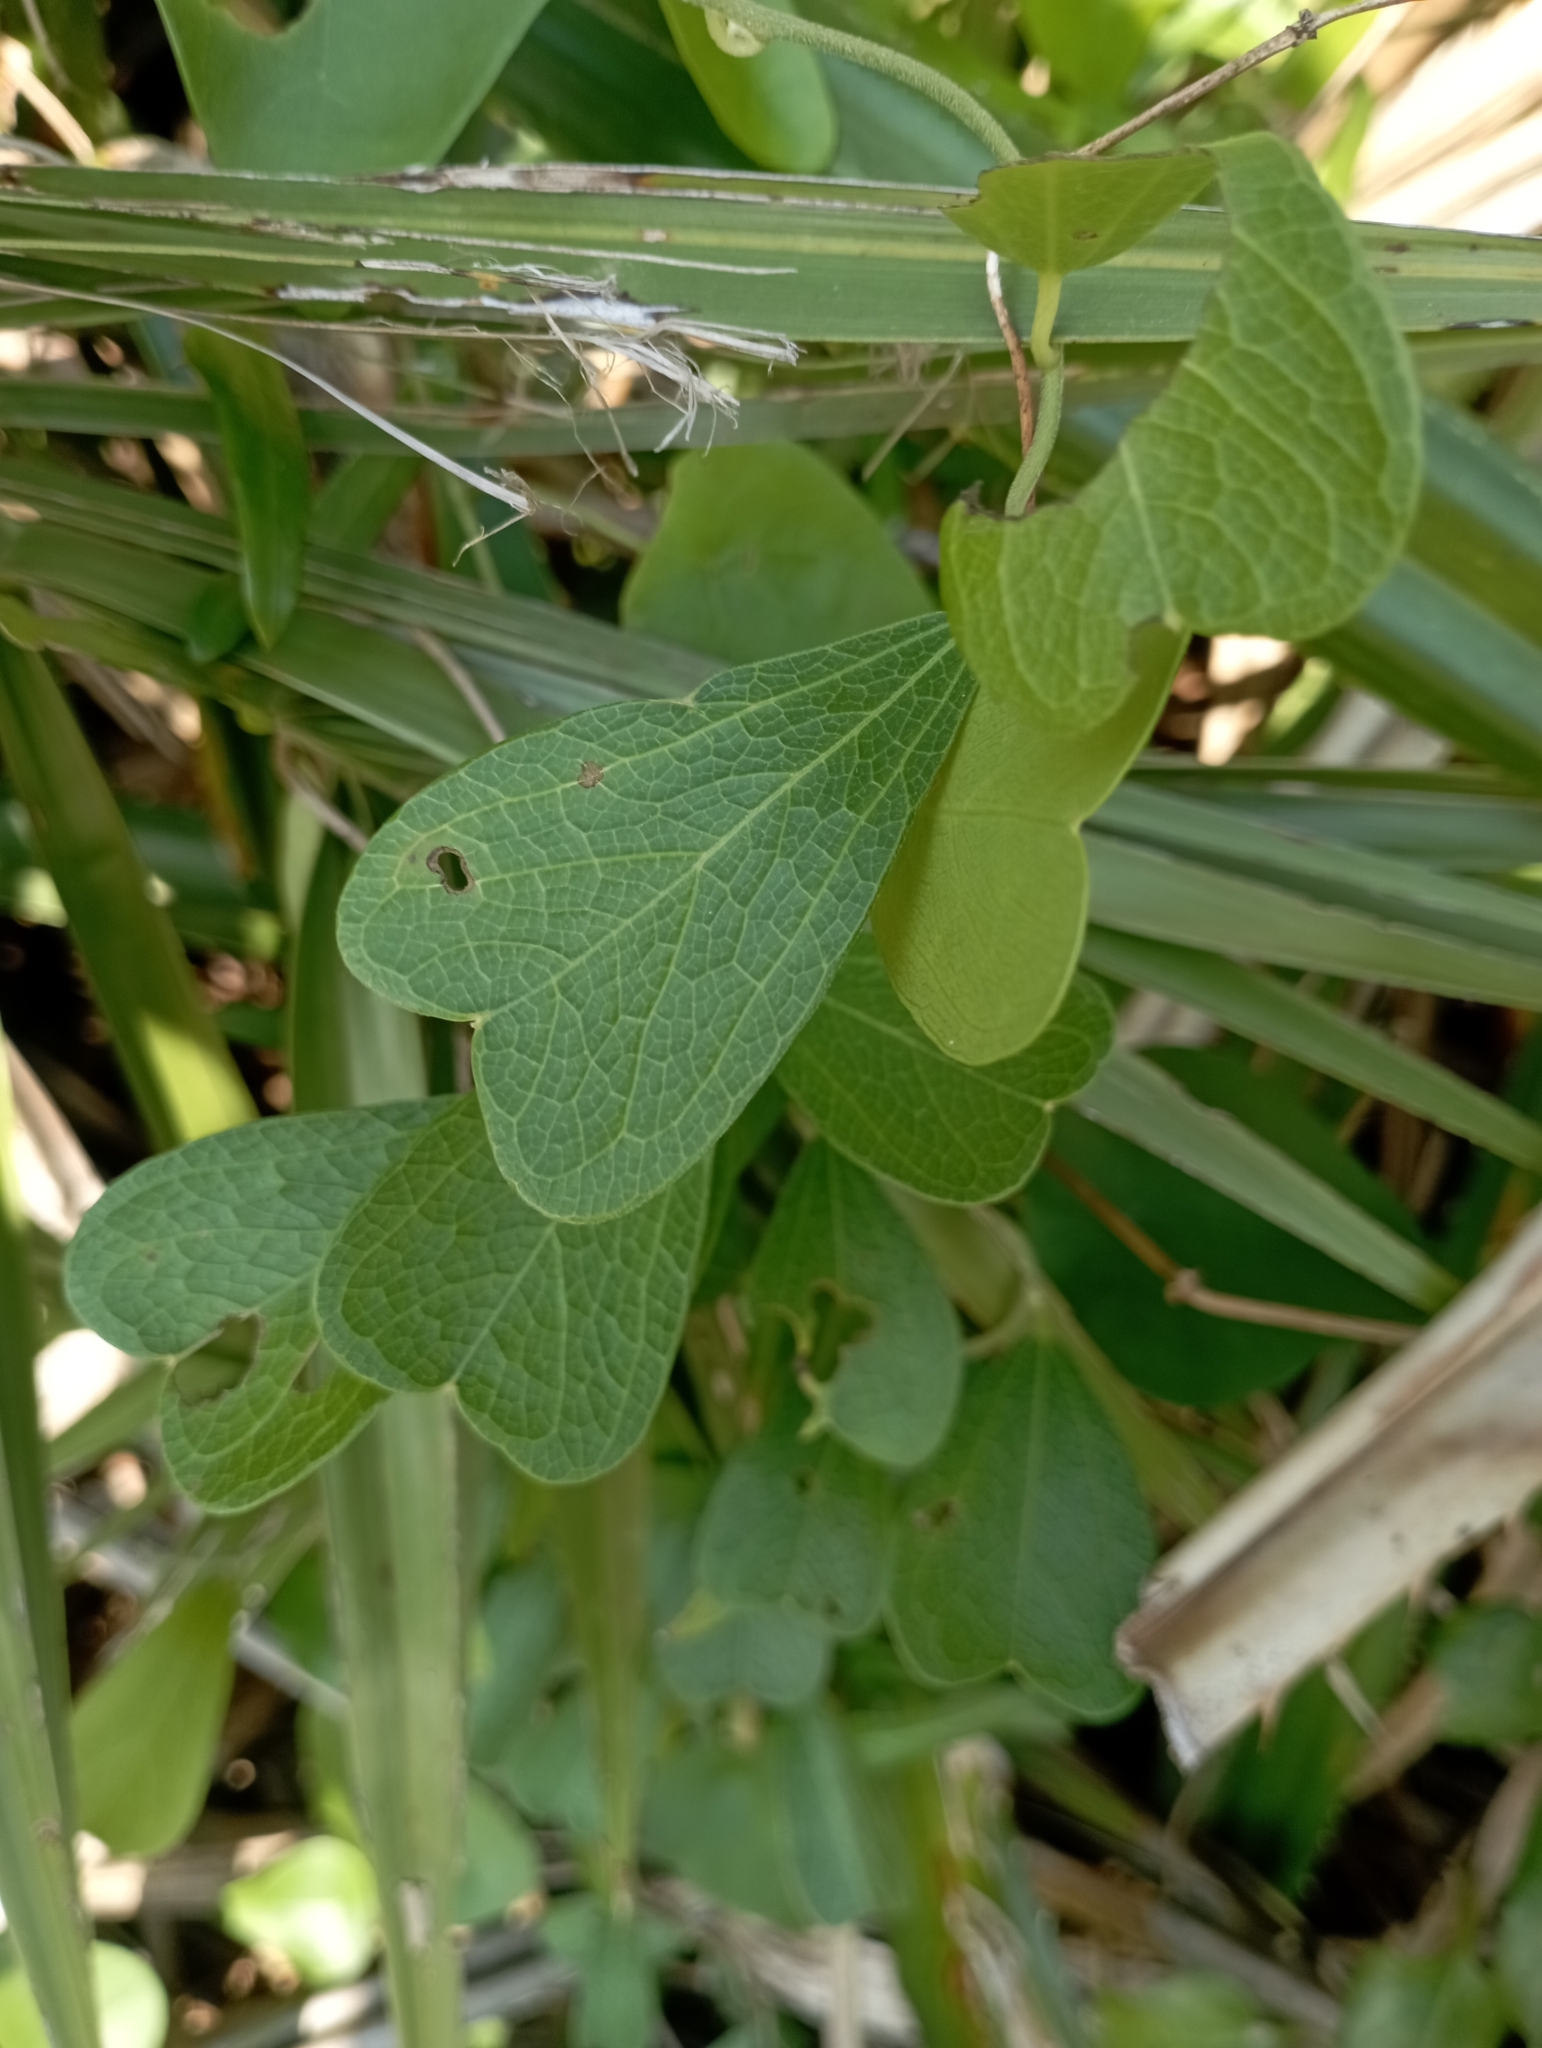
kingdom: Plantae
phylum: Tracheophyta
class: Magnoliopsida
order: Ranunculales
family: Menispermaceae
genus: Cocculus
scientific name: Cocculus orbiculatus
